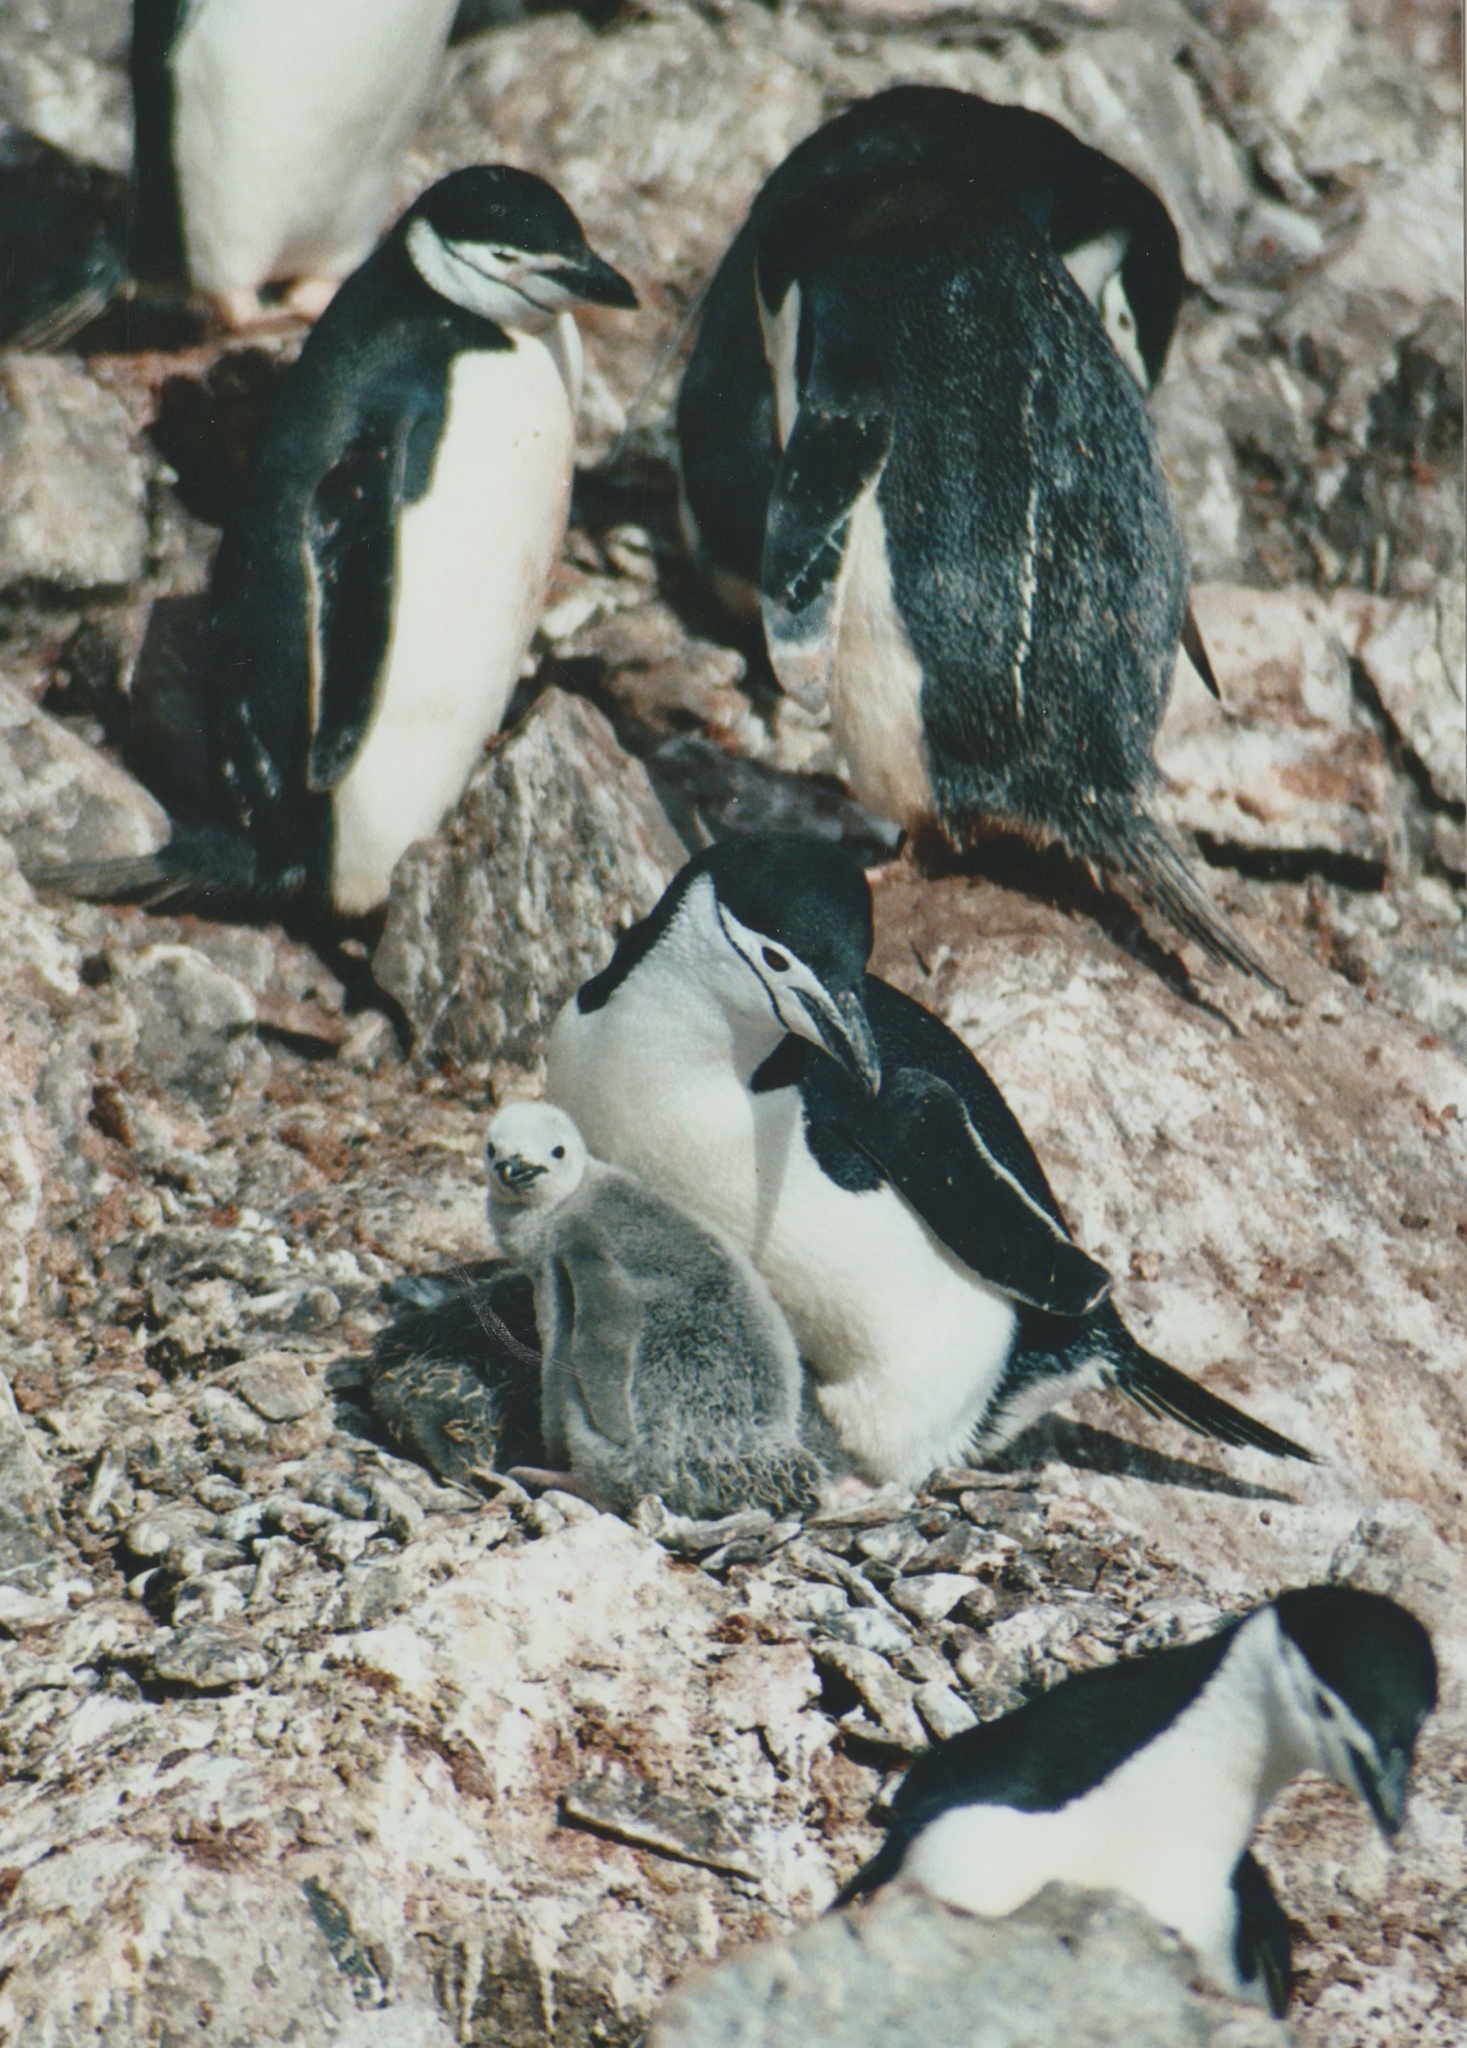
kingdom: Animalia
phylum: Chordata
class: Aves
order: Sphenisciformes
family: Spheniscidae
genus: Pygoscelis
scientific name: Pygoscelis antarcticus
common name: Chinstrap penguin
